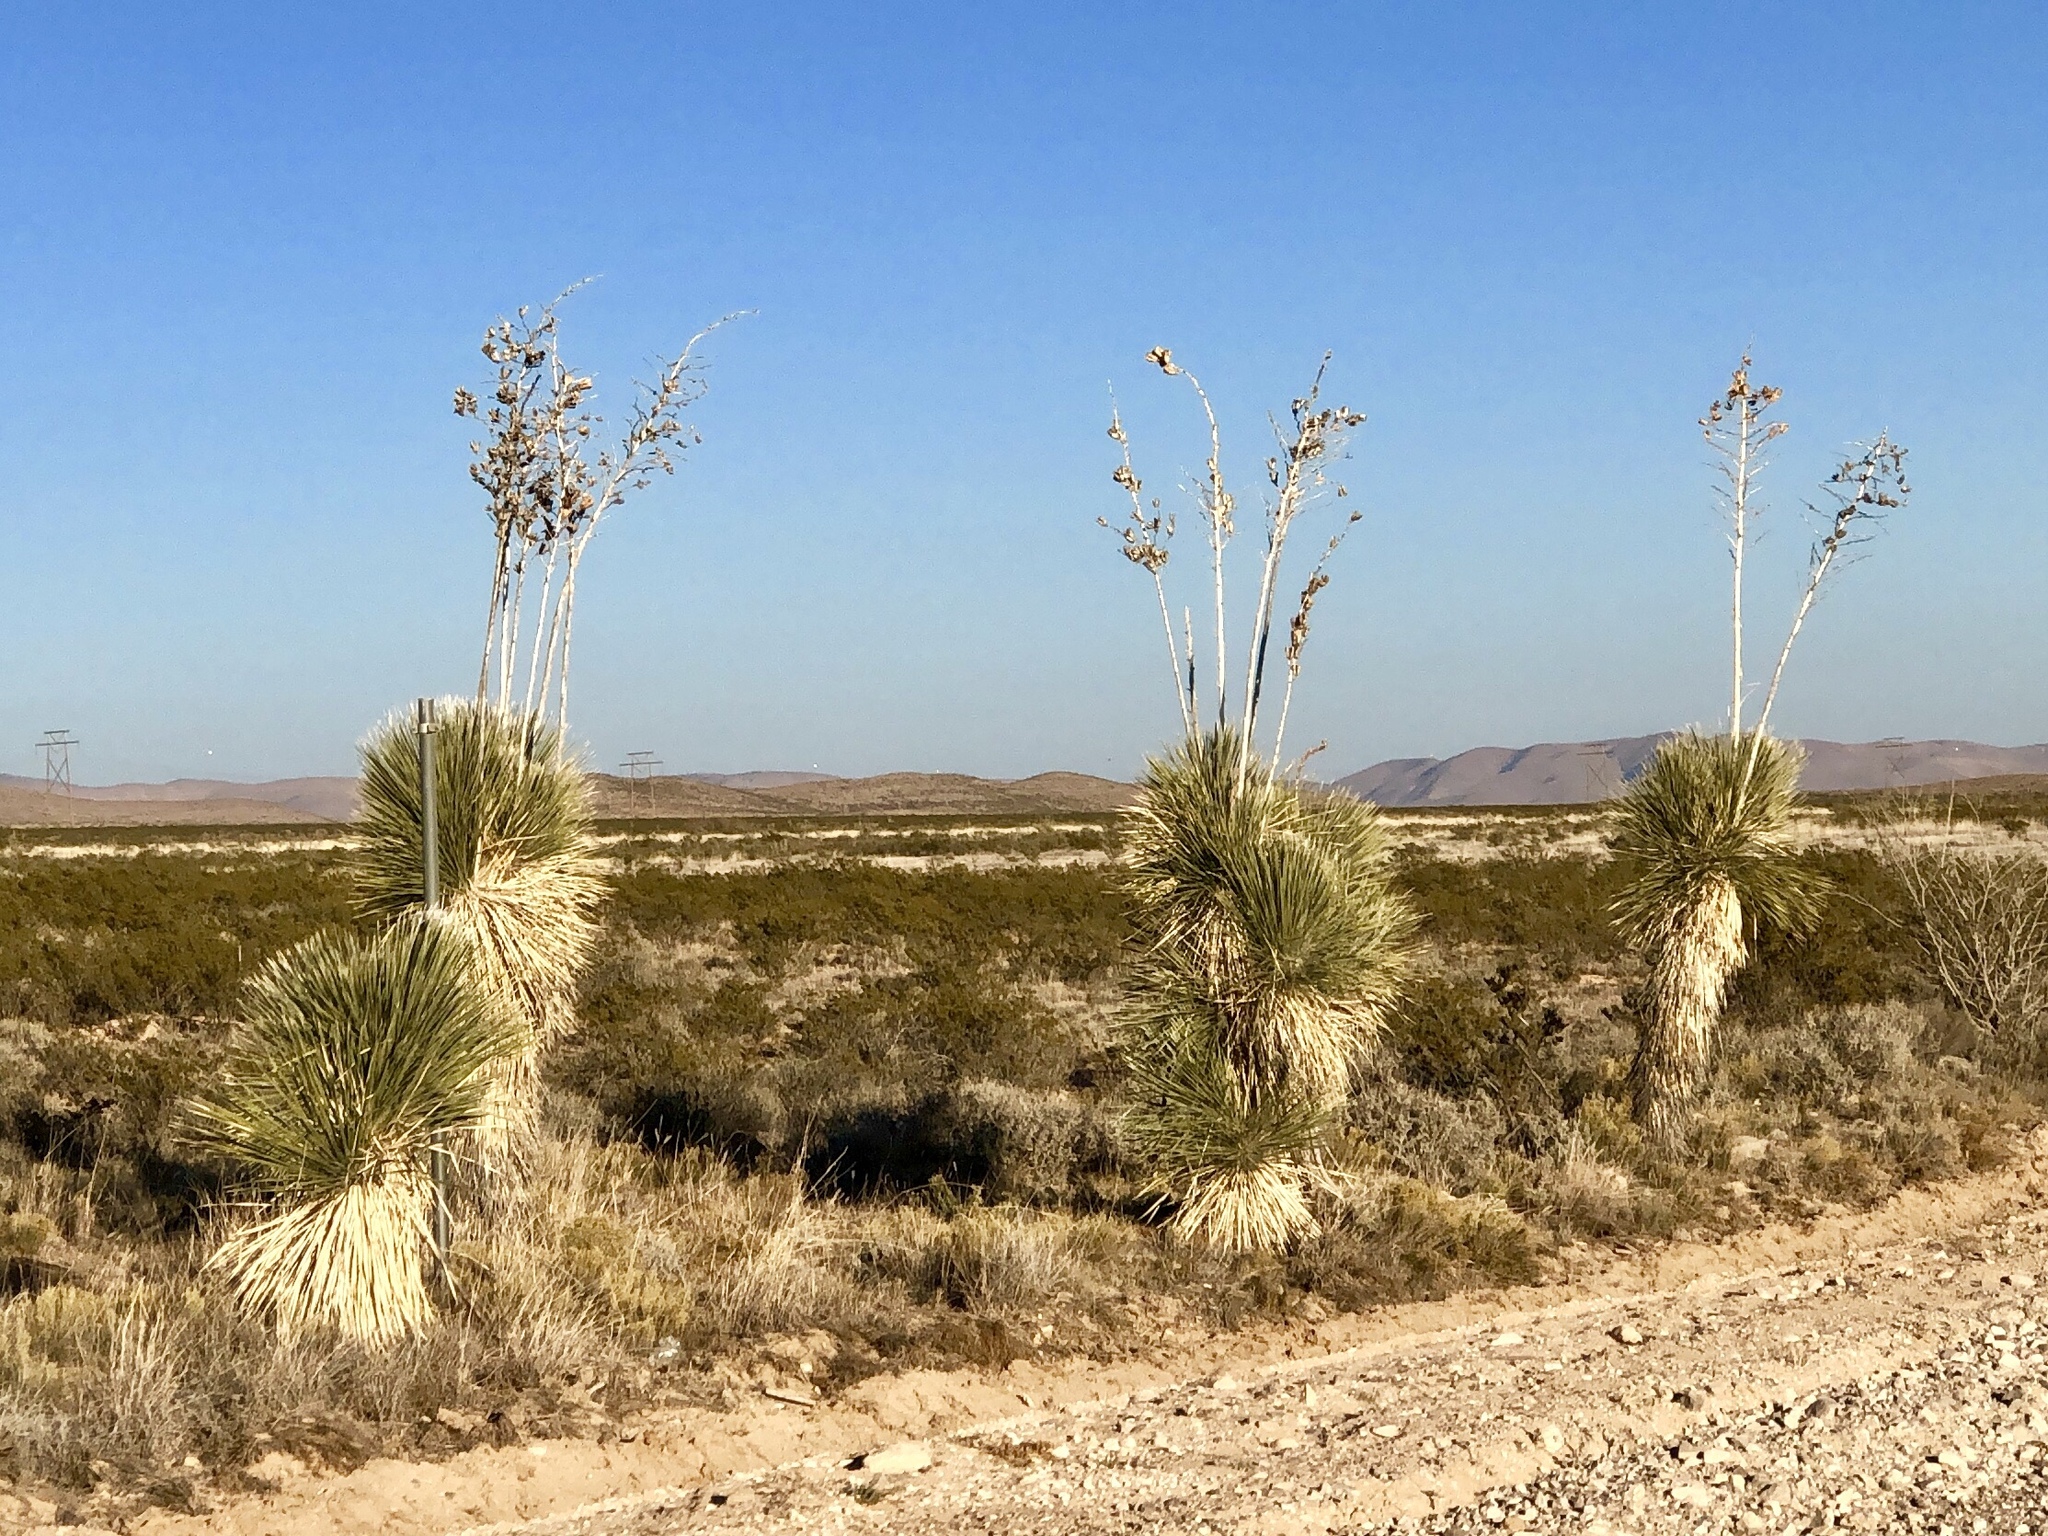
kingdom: Plantae
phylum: Tracheophyta
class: Liliopsida
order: Asparagales
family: Asparagaceae
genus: Yucca
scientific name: Yucca elata
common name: Palmella
